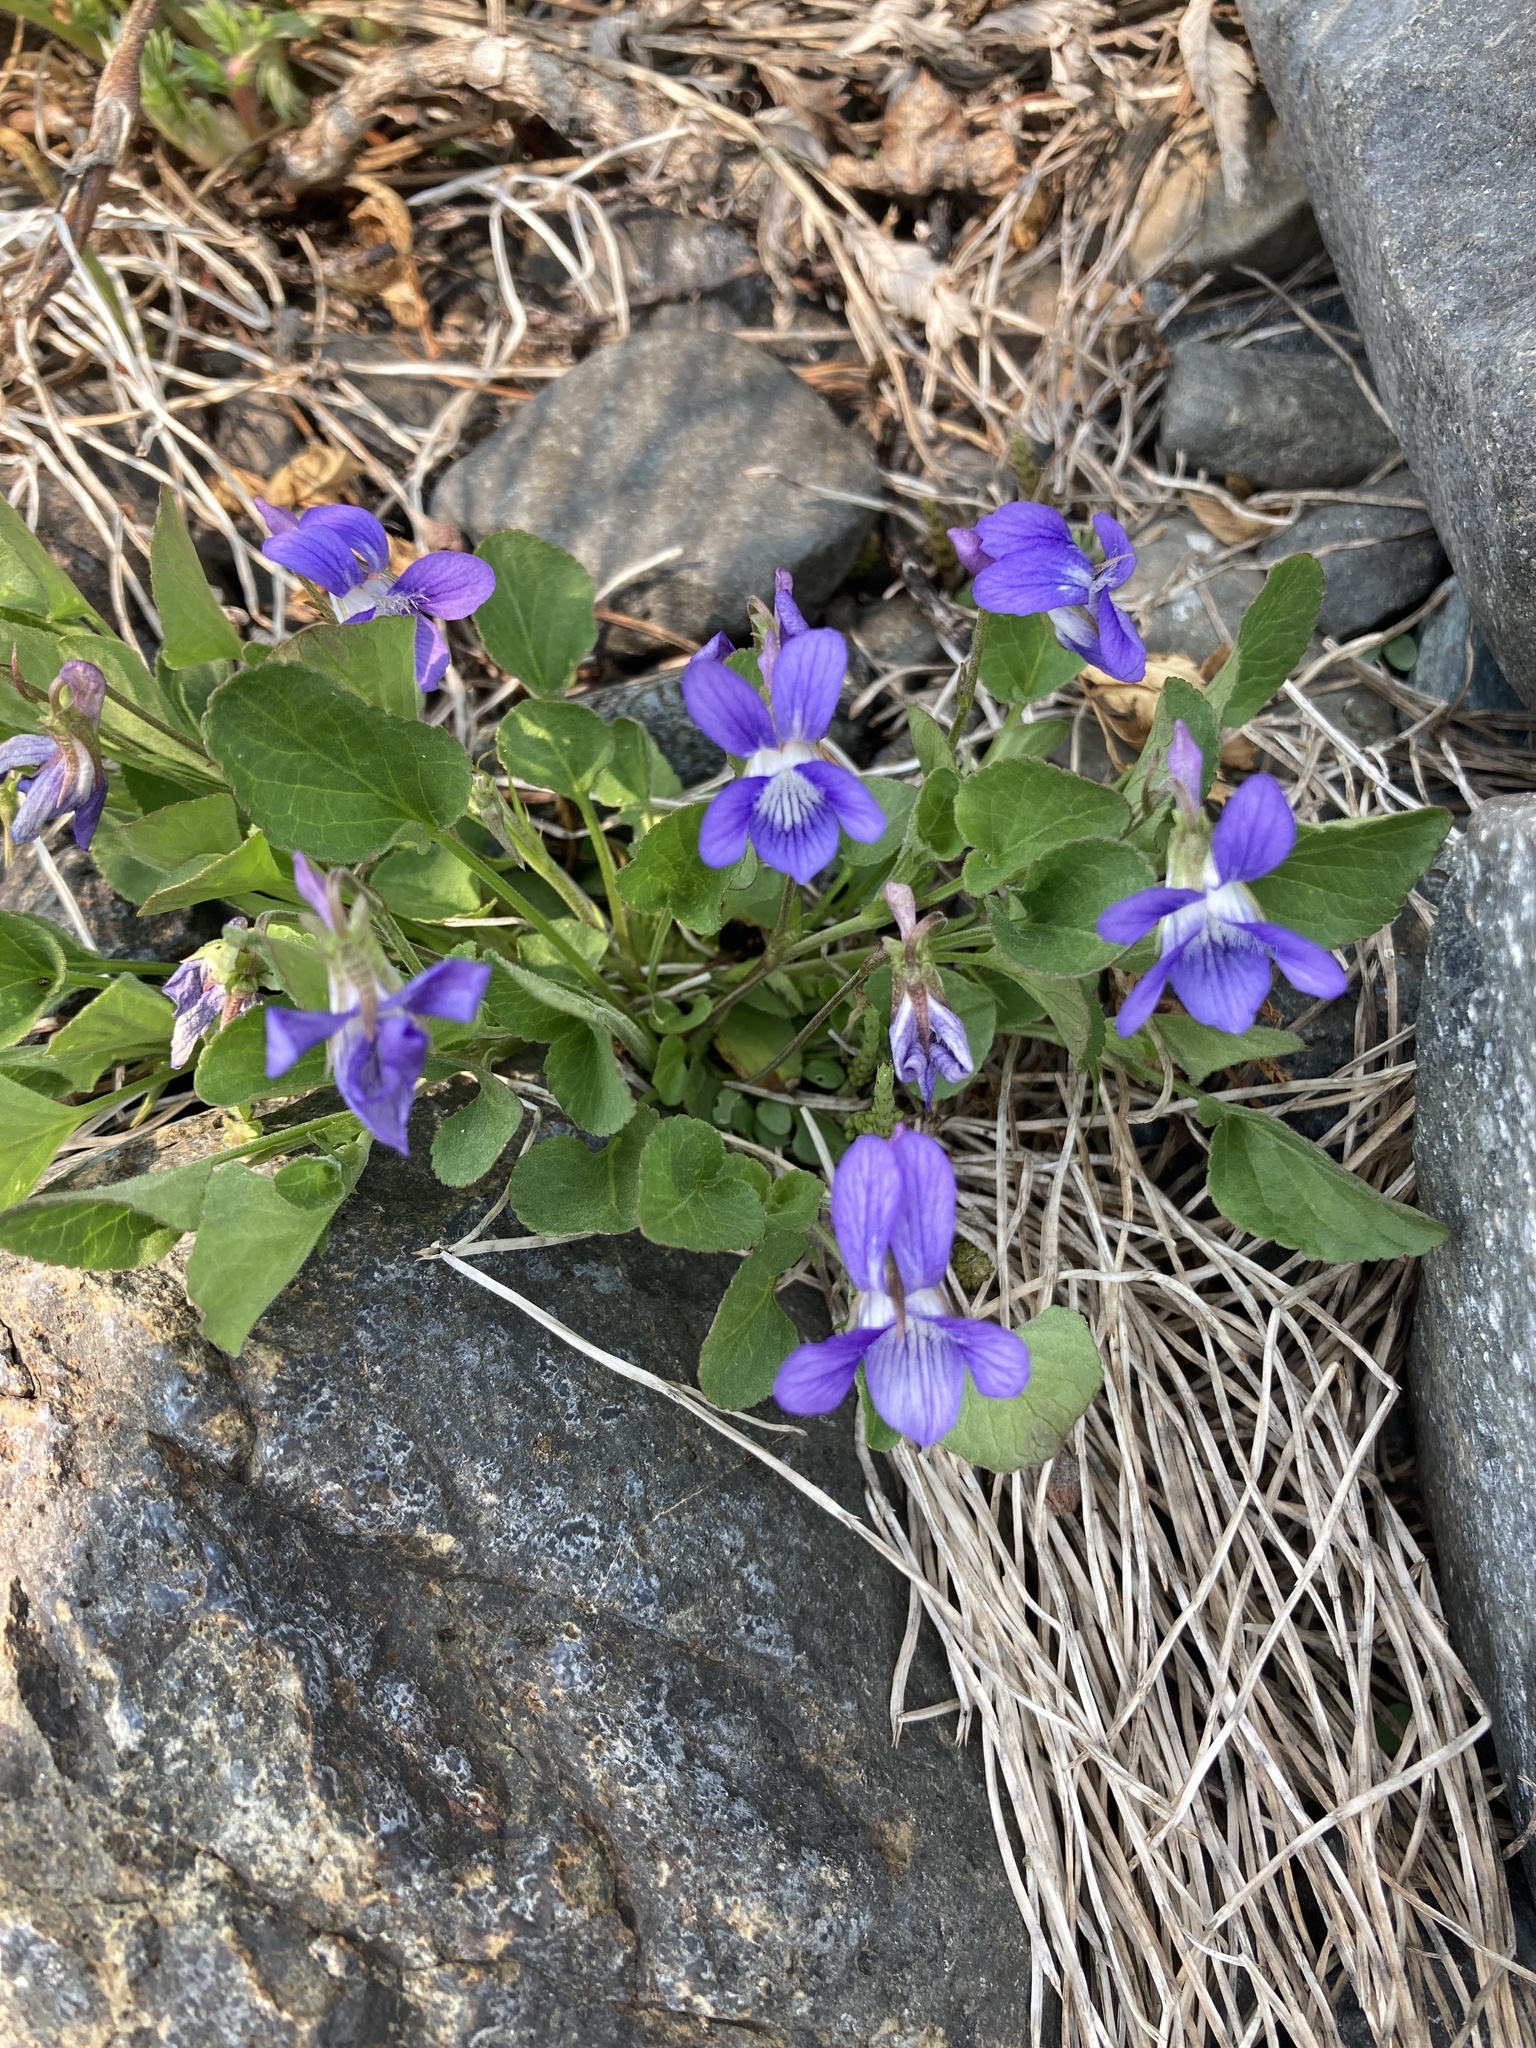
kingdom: Plantae
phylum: Tracheophyta
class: Magnoliopsida
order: Malpighiales
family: Violaceae
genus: Viola
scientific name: Viola adunca
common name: Sand violet
